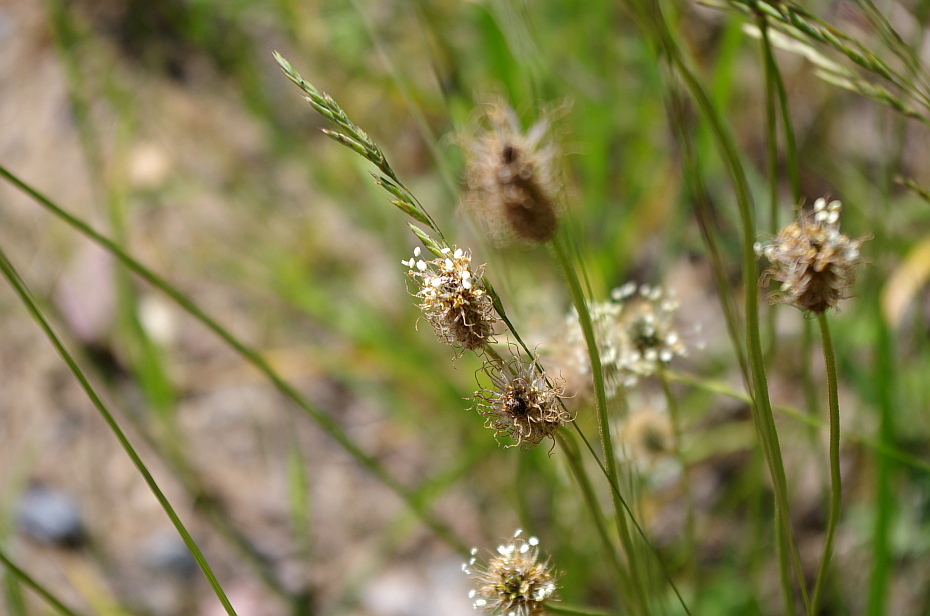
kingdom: Plantae
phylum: Tracheophyta
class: Magnoliopsida
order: Lamiales
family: Plantaginaceae
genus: Plantago
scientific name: Plantago lanceolata
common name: Ribwort plantain
